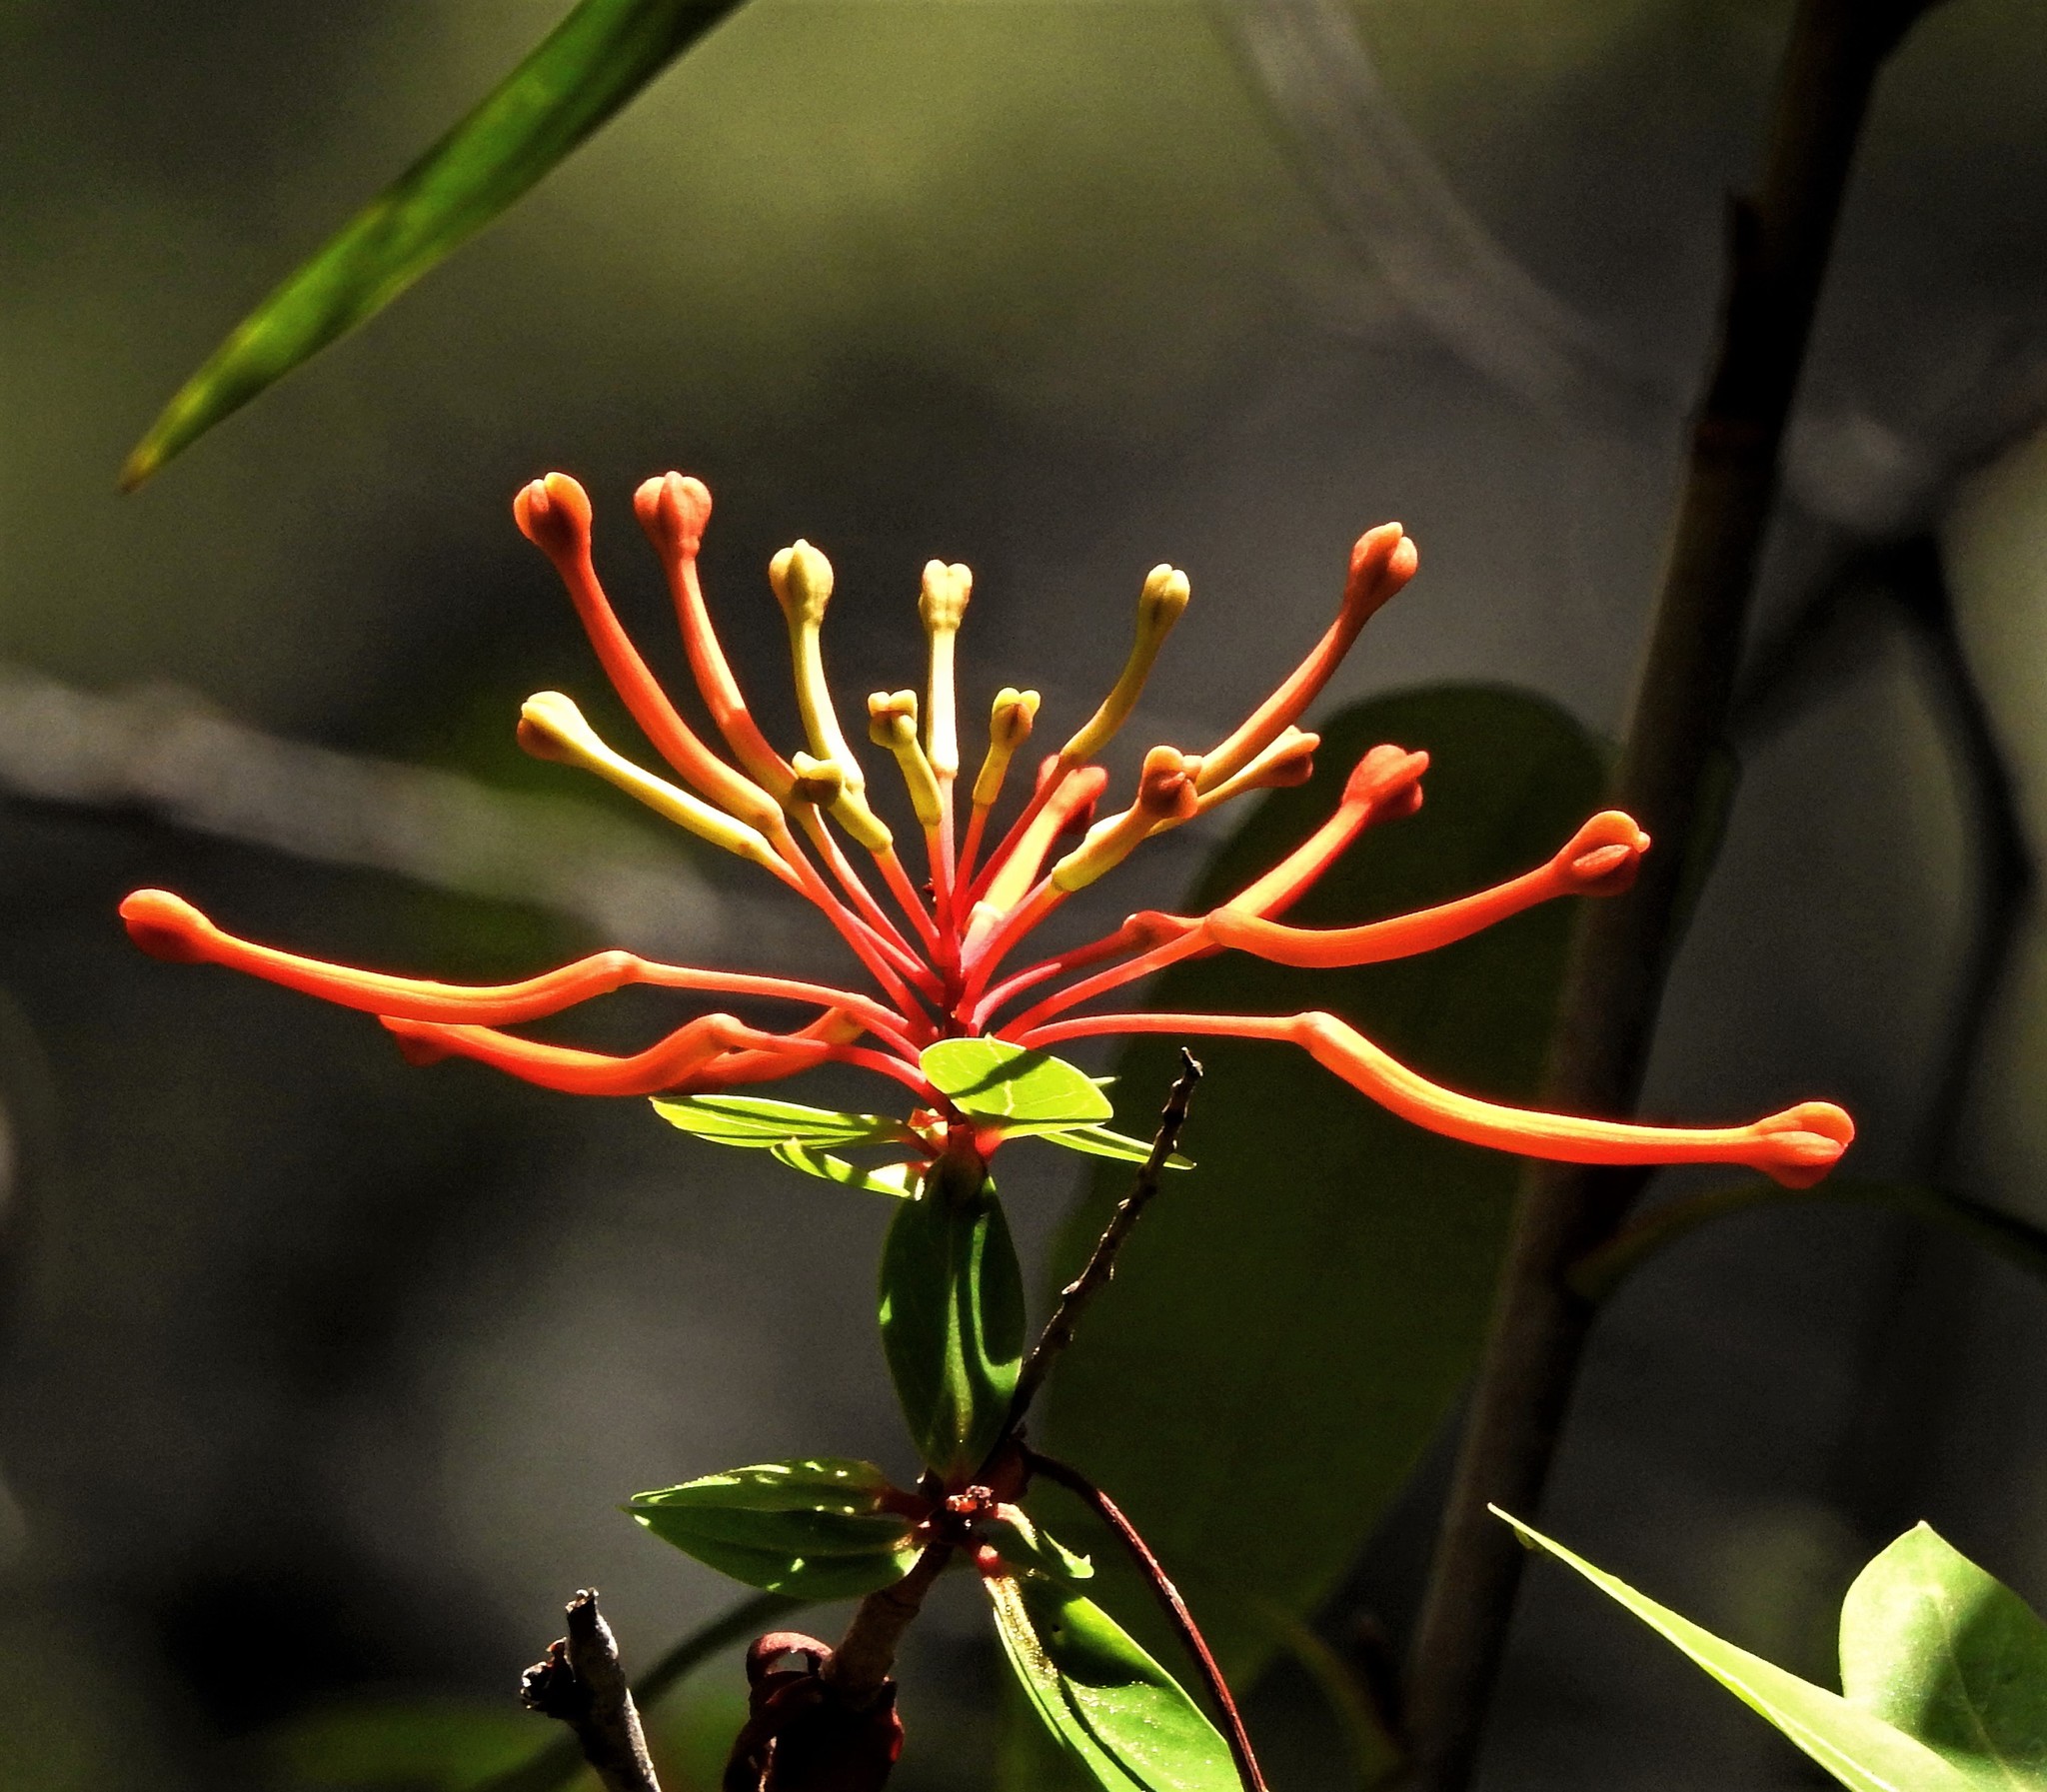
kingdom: Plantae
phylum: Tracheophyta
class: Magnoliopsida
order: Proteales
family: Proteaceae
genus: Embothrium
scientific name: Embothrium coccineum
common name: Chilean firebush
